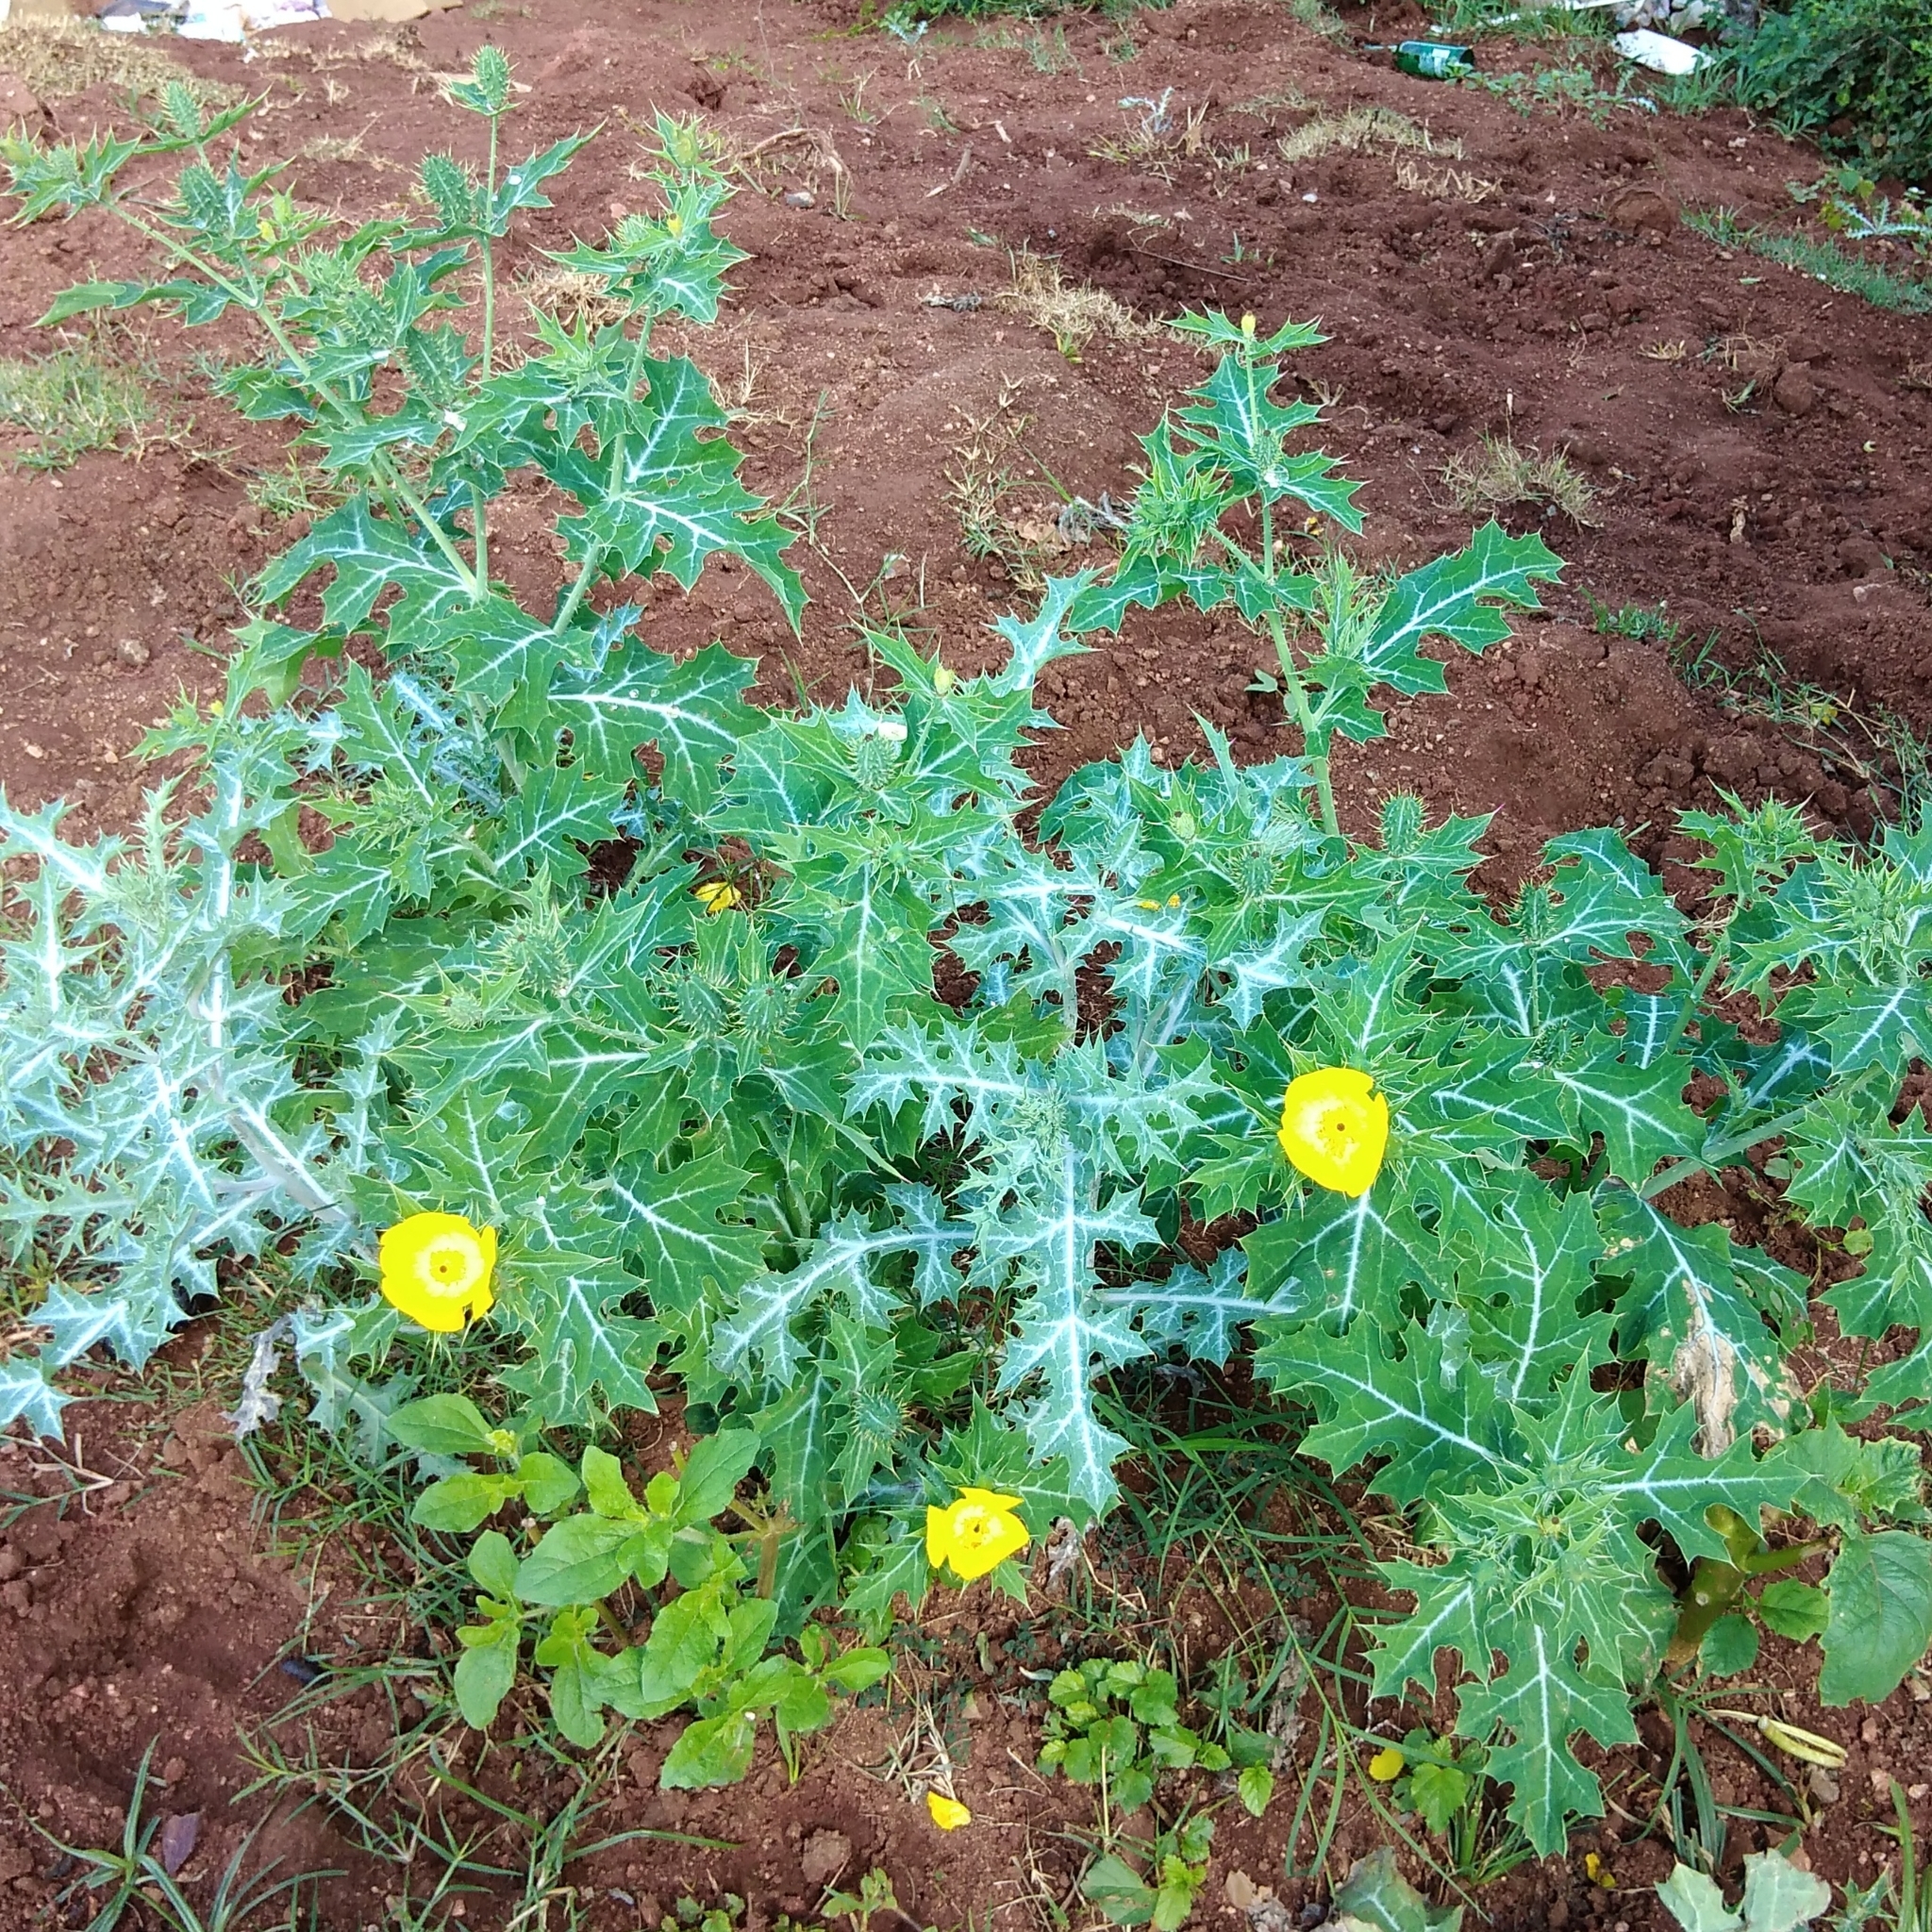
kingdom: Plantae
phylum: Tracheophyta
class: Magnoliopsida
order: Ranunculales
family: Papaveraceae
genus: Argemone
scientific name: Argemone mexicana
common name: Mexican poppy
